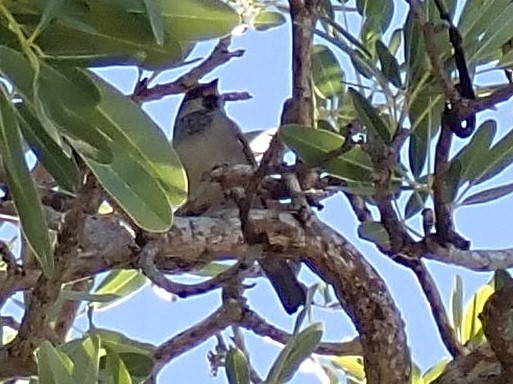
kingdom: Animalia
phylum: Chordata
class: Aves
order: Passeriformes
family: Passeridae
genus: Passer
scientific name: Passer domesticus
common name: House sparrow
